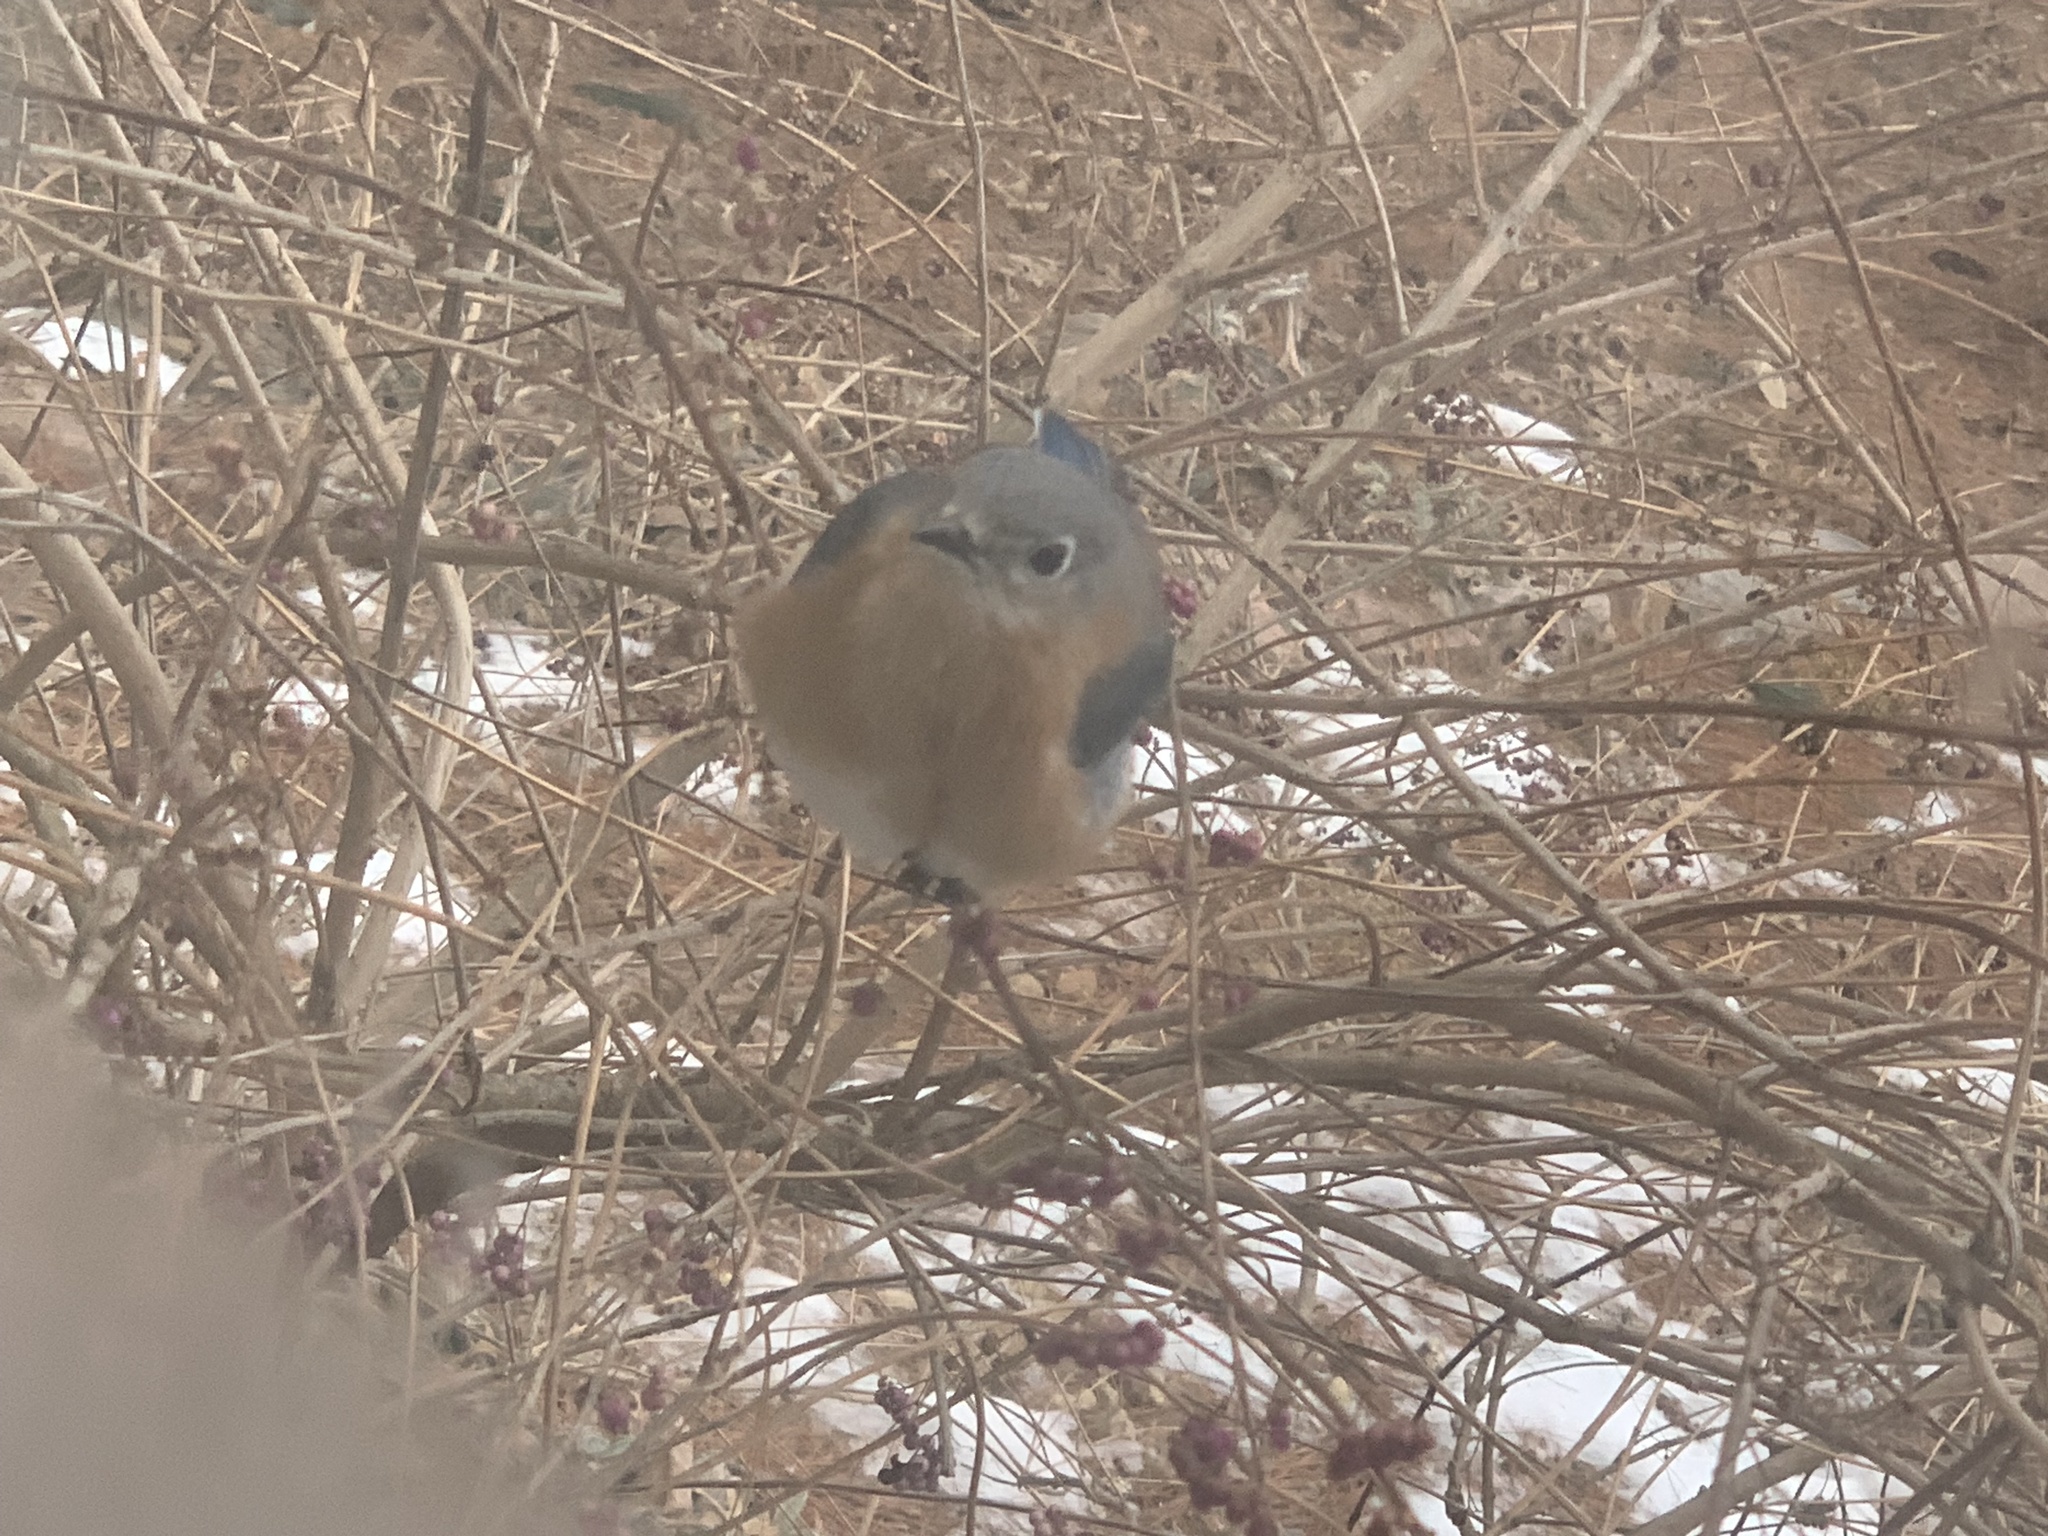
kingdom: Animalia
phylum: Chordata
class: Aves
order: Passeriformes
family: Turdidae
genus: Sialia
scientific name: Sialia sialis
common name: Eastern bluebird
